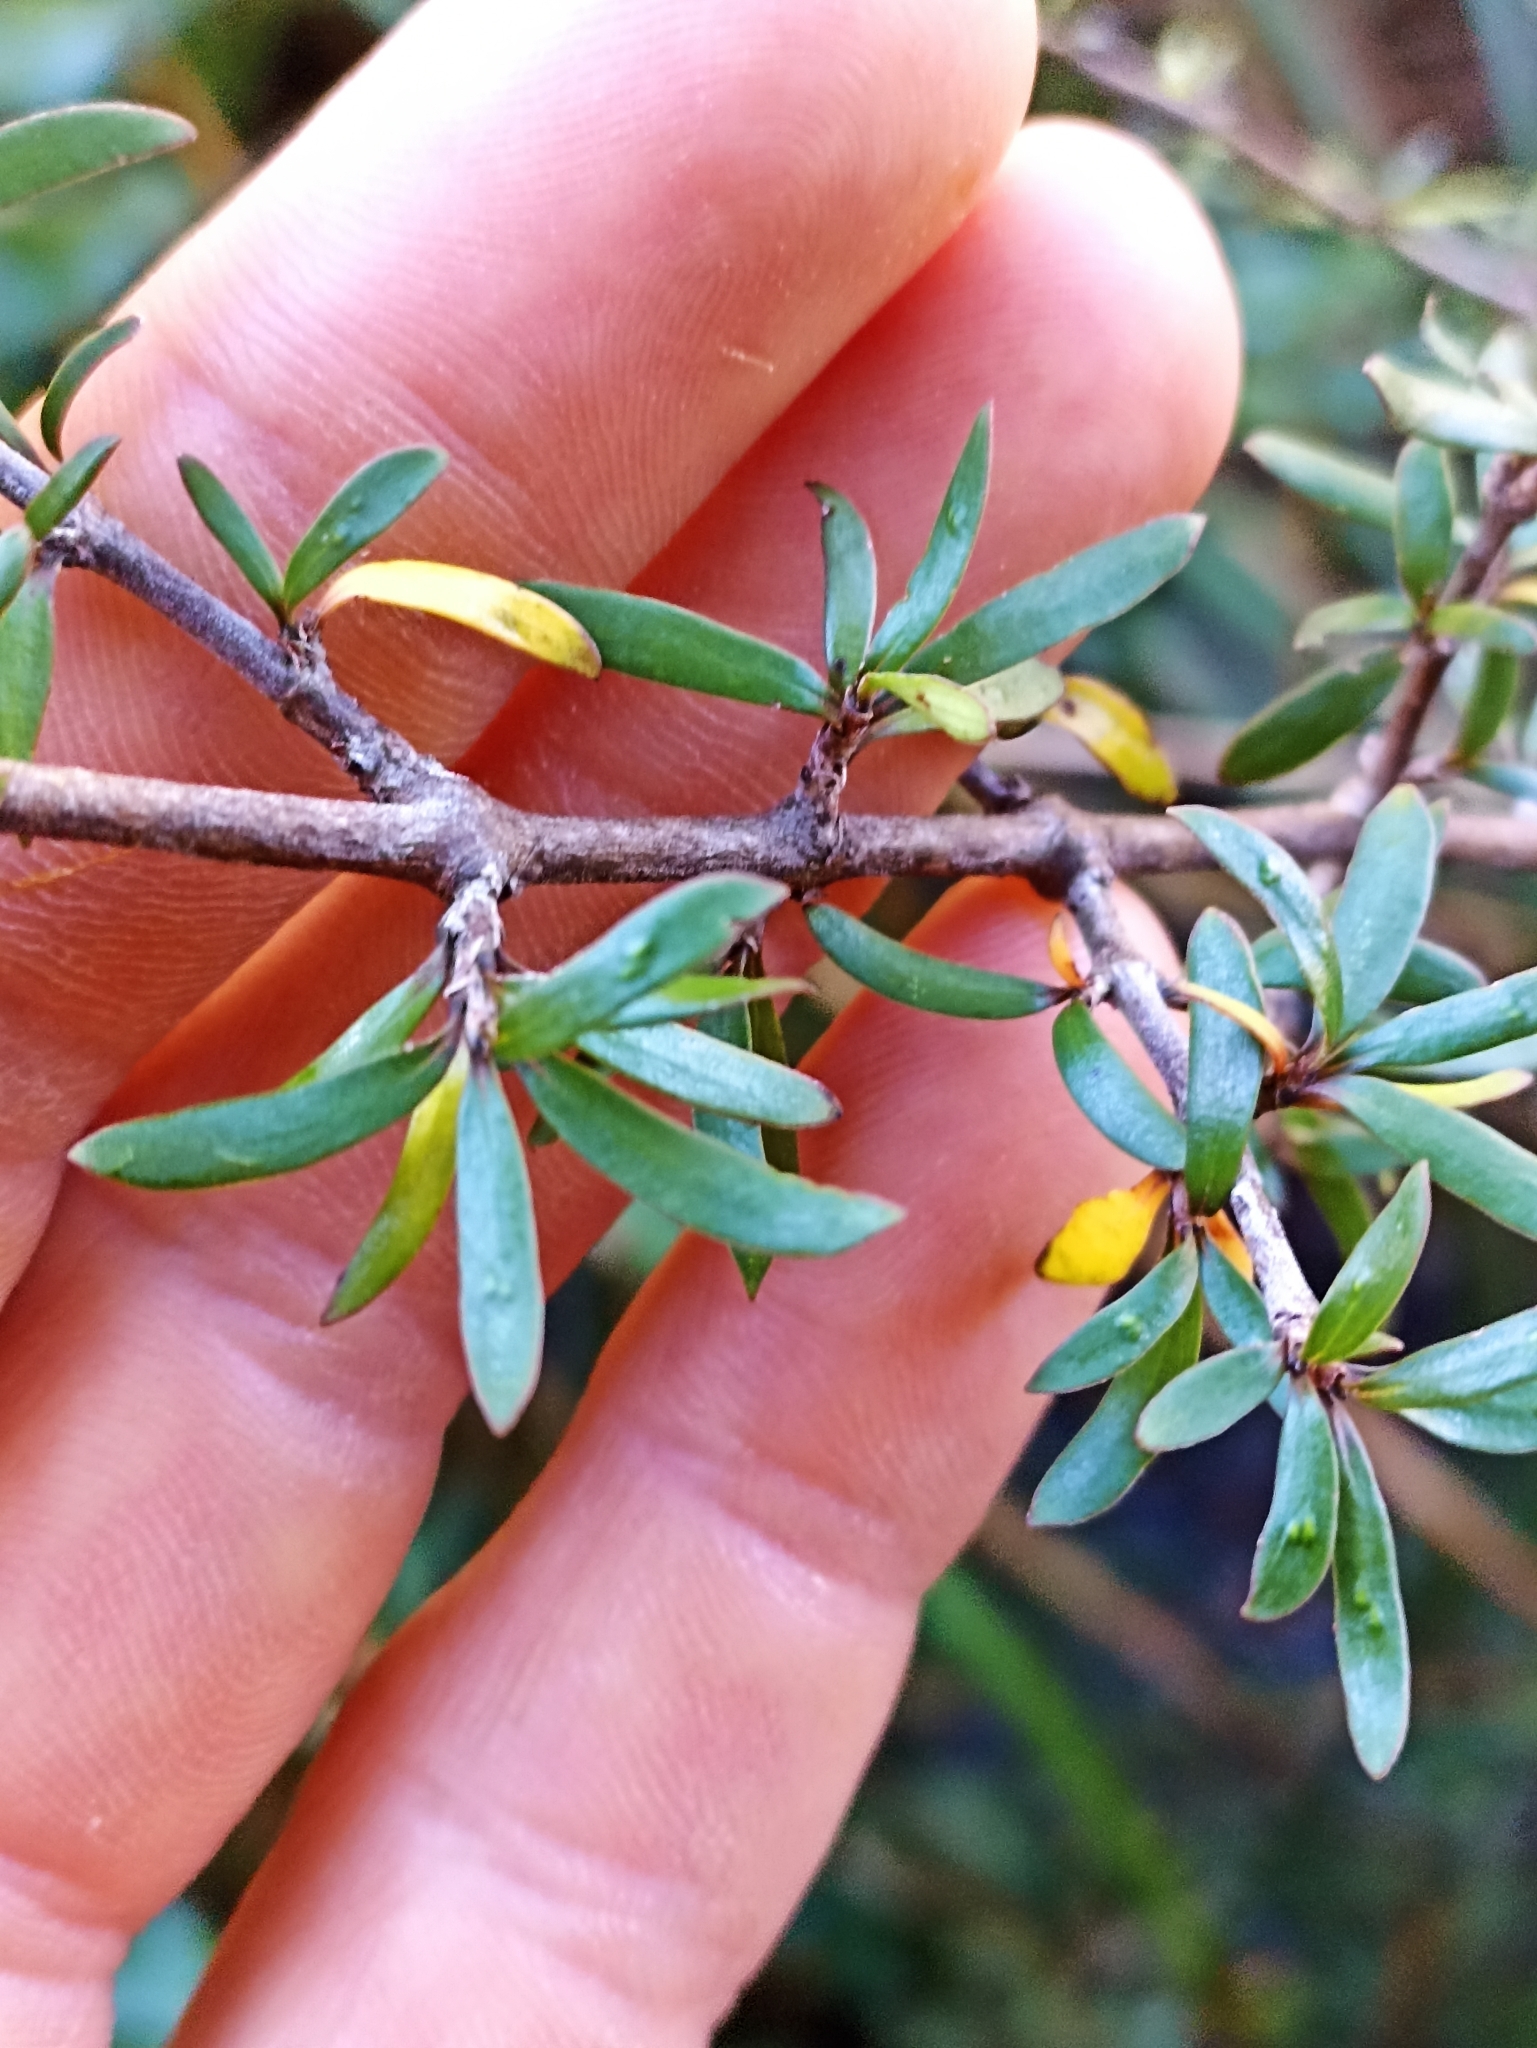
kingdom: Plantae
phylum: Tracheophyta
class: Magnoliopsida
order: Gentianales
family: Rubiaceae
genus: Coprosma
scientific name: Coprosma propinqua
